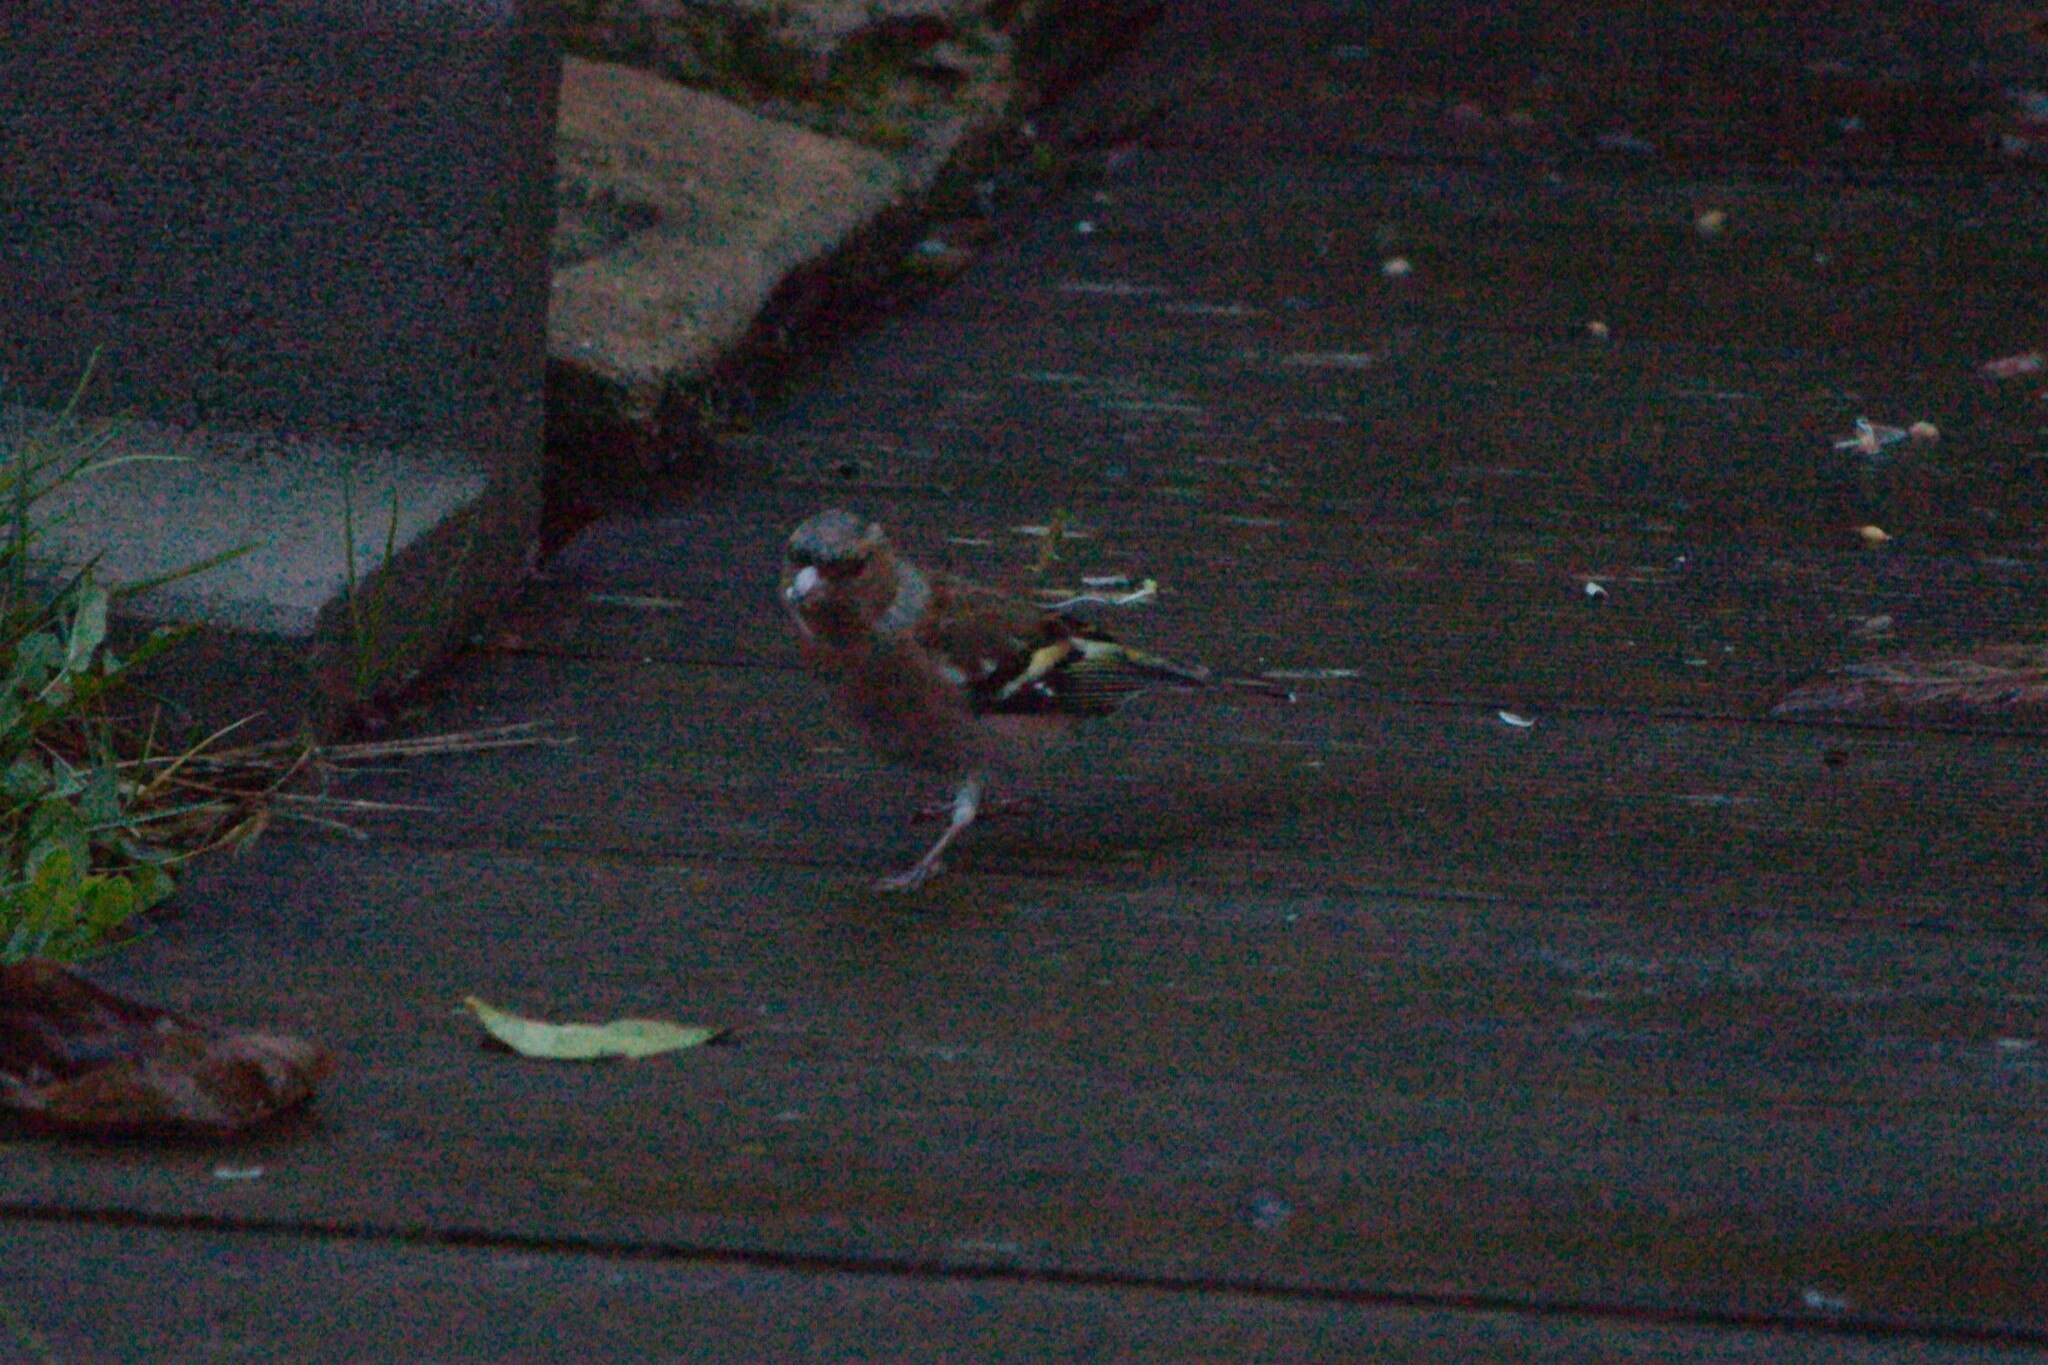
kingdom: Animalia
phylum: Chordata
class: Aves
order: Passeriformes
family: Fringillidae
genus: Fringilla
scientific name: Fringilla coelebs
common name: Common chaffinch
